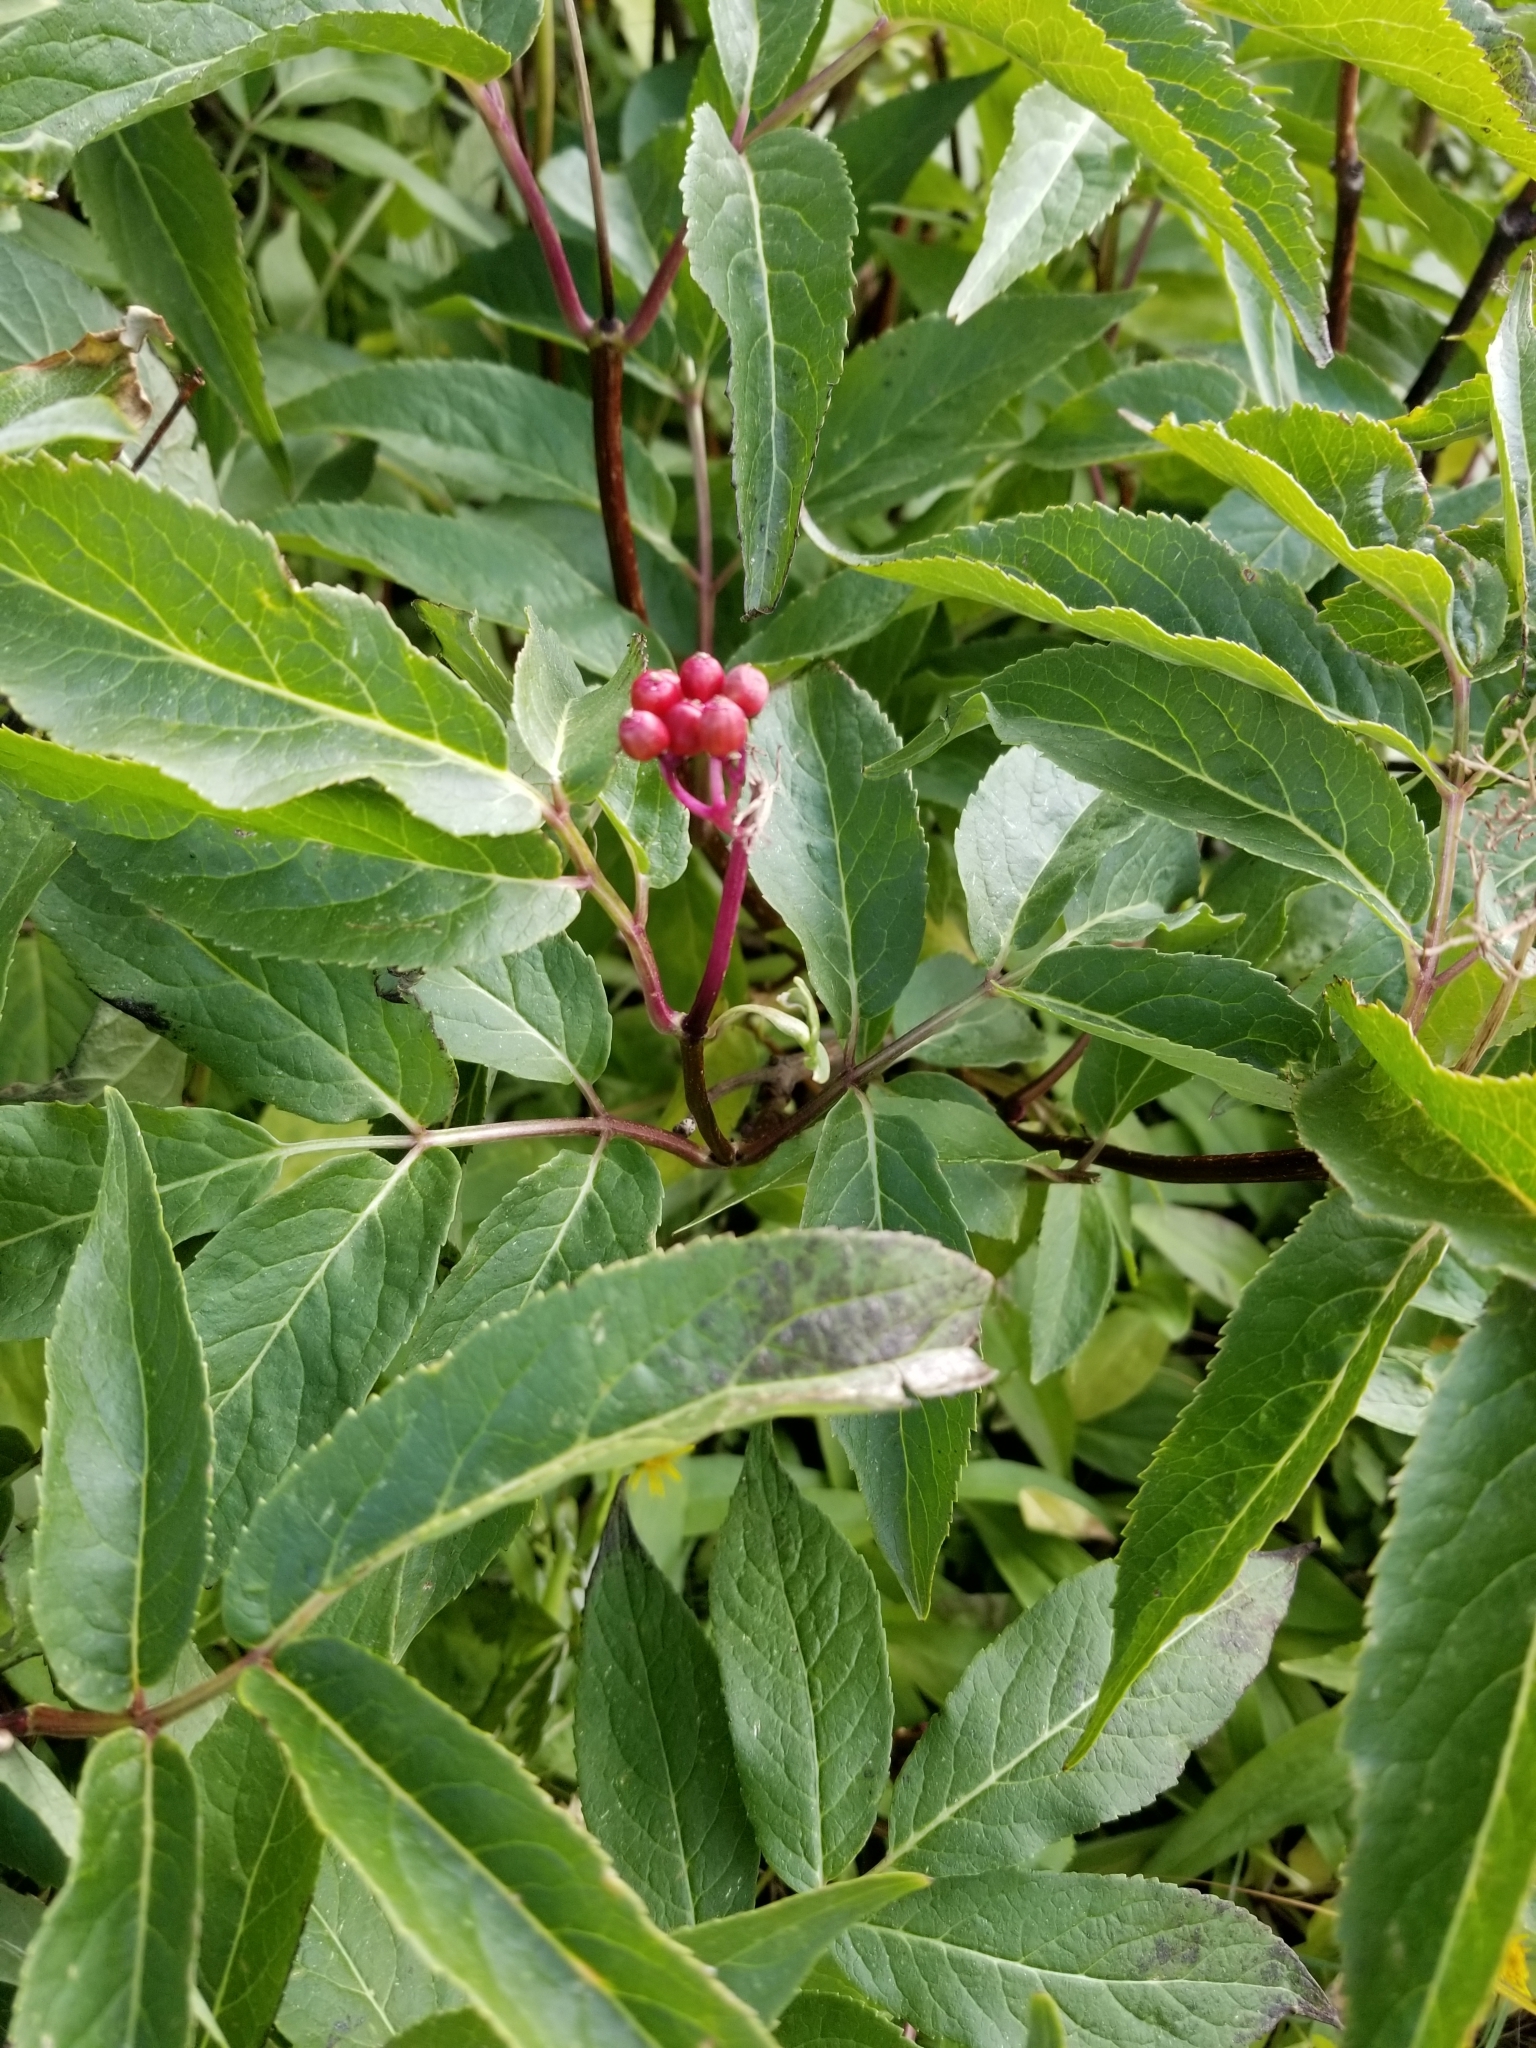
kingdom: Plantae
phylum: Tracheophyta
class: Magnoliopsida
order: Dipsacales
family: Viburnaceae
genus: Sambucus
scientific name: Sambucus racemosa
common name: Red-berried elder
